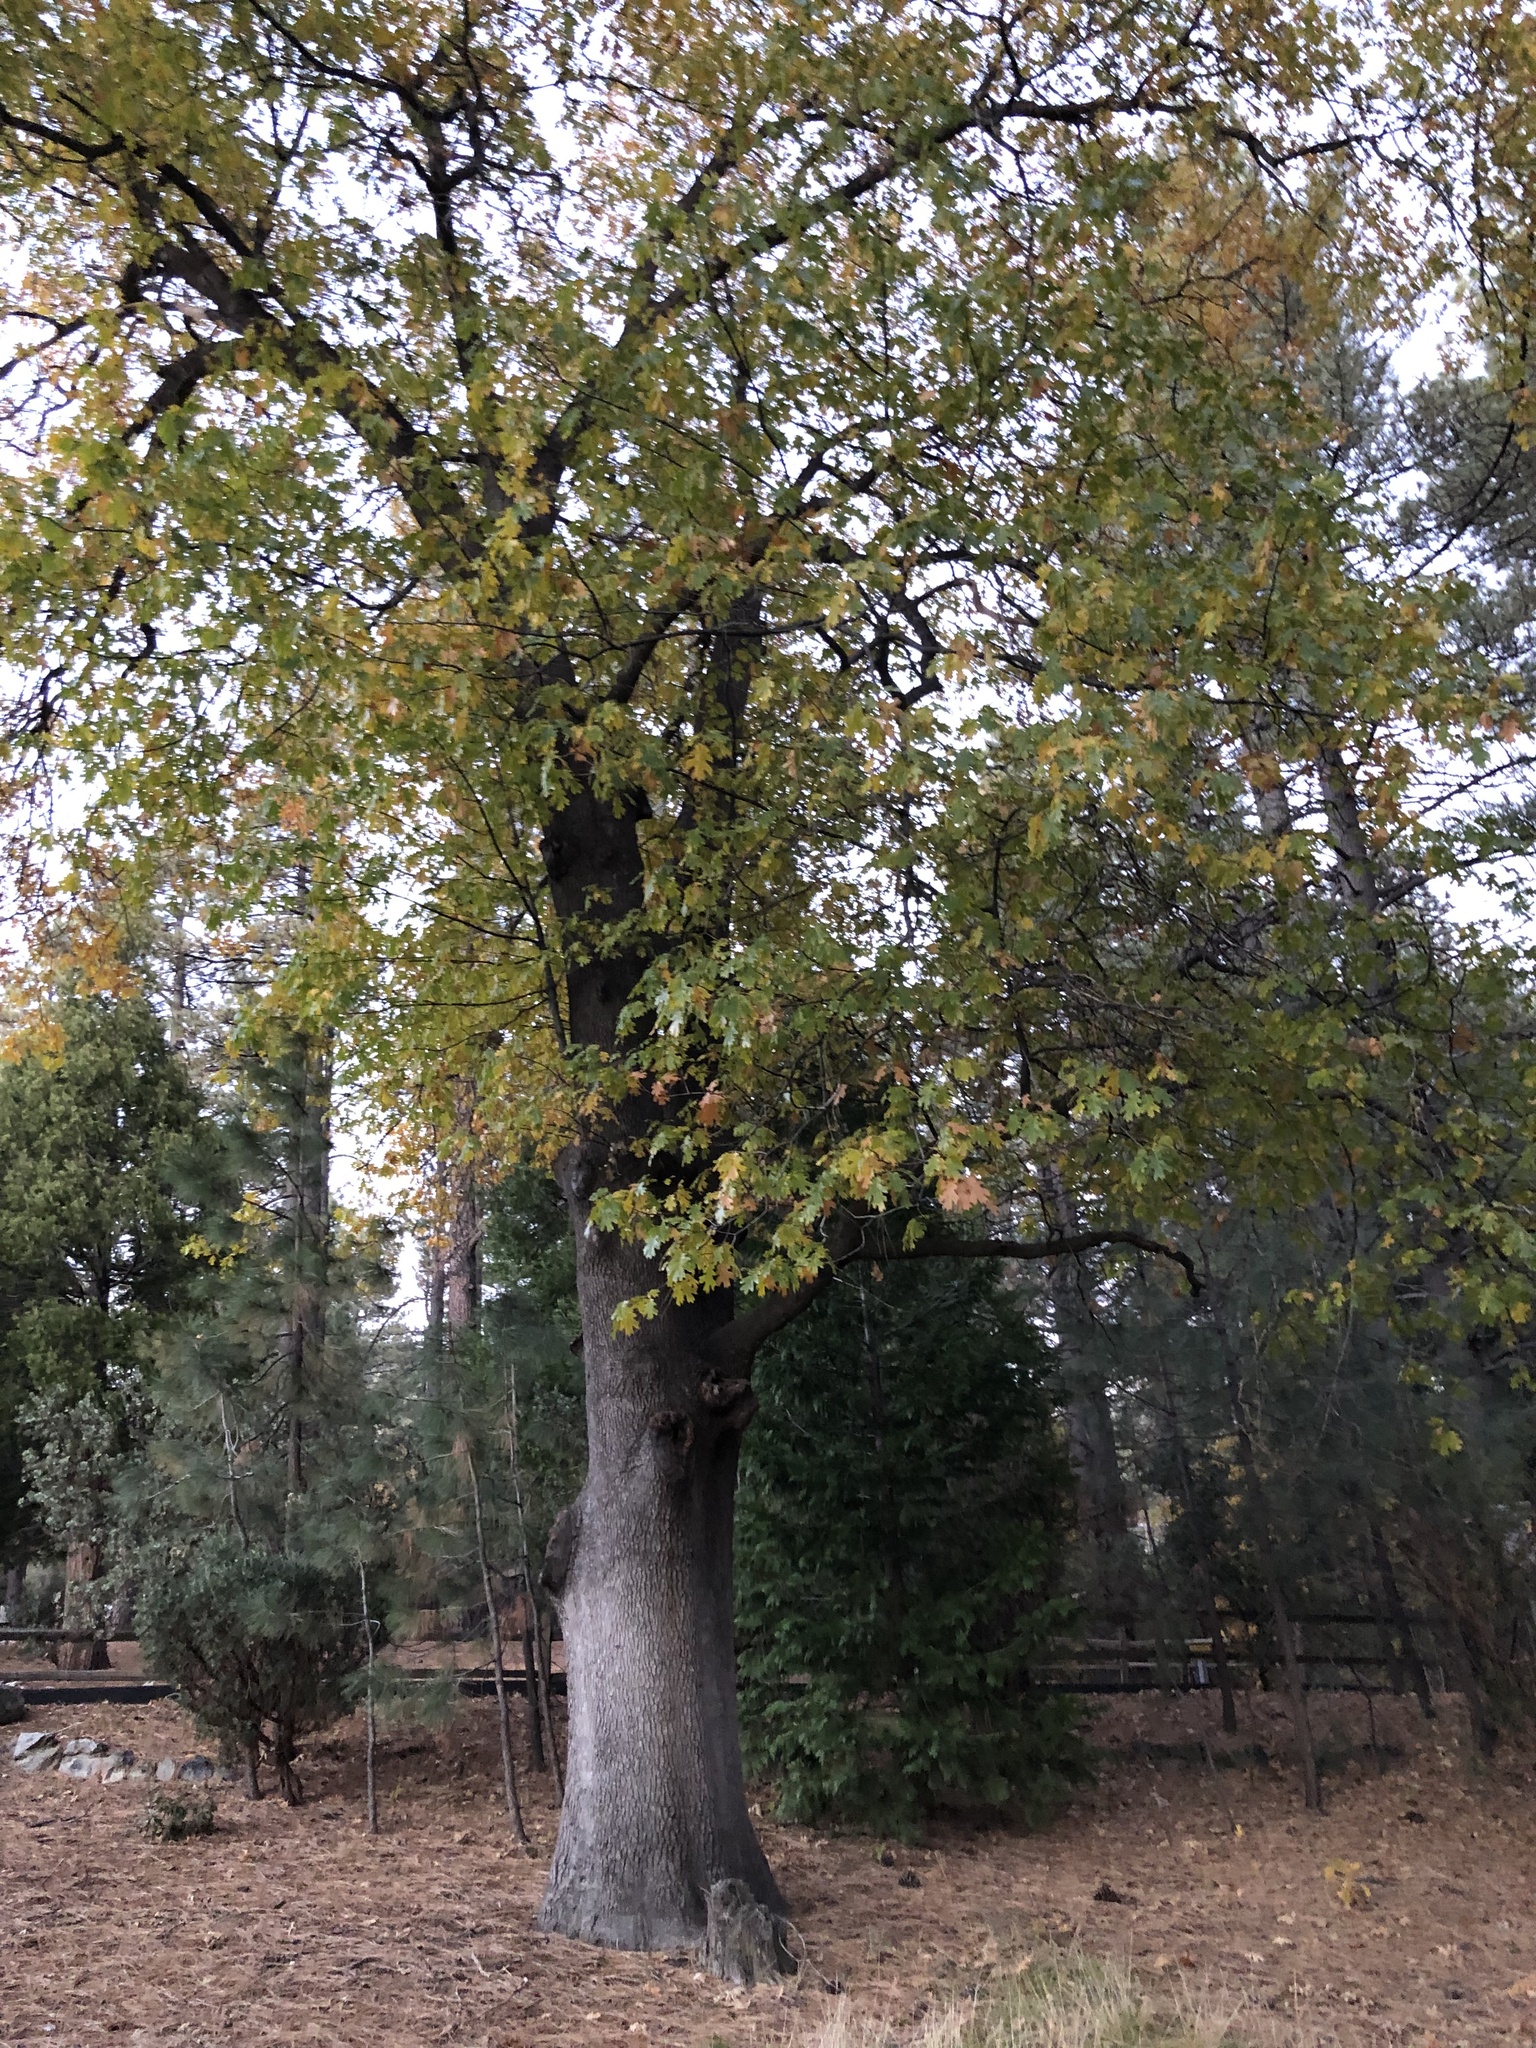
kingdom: Plantae
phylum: Tracheophyta
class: Magnoliopsida
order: Fagales
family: Fagaceae
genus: Quercus
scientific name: Quercus kelloggii
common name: California black oak
